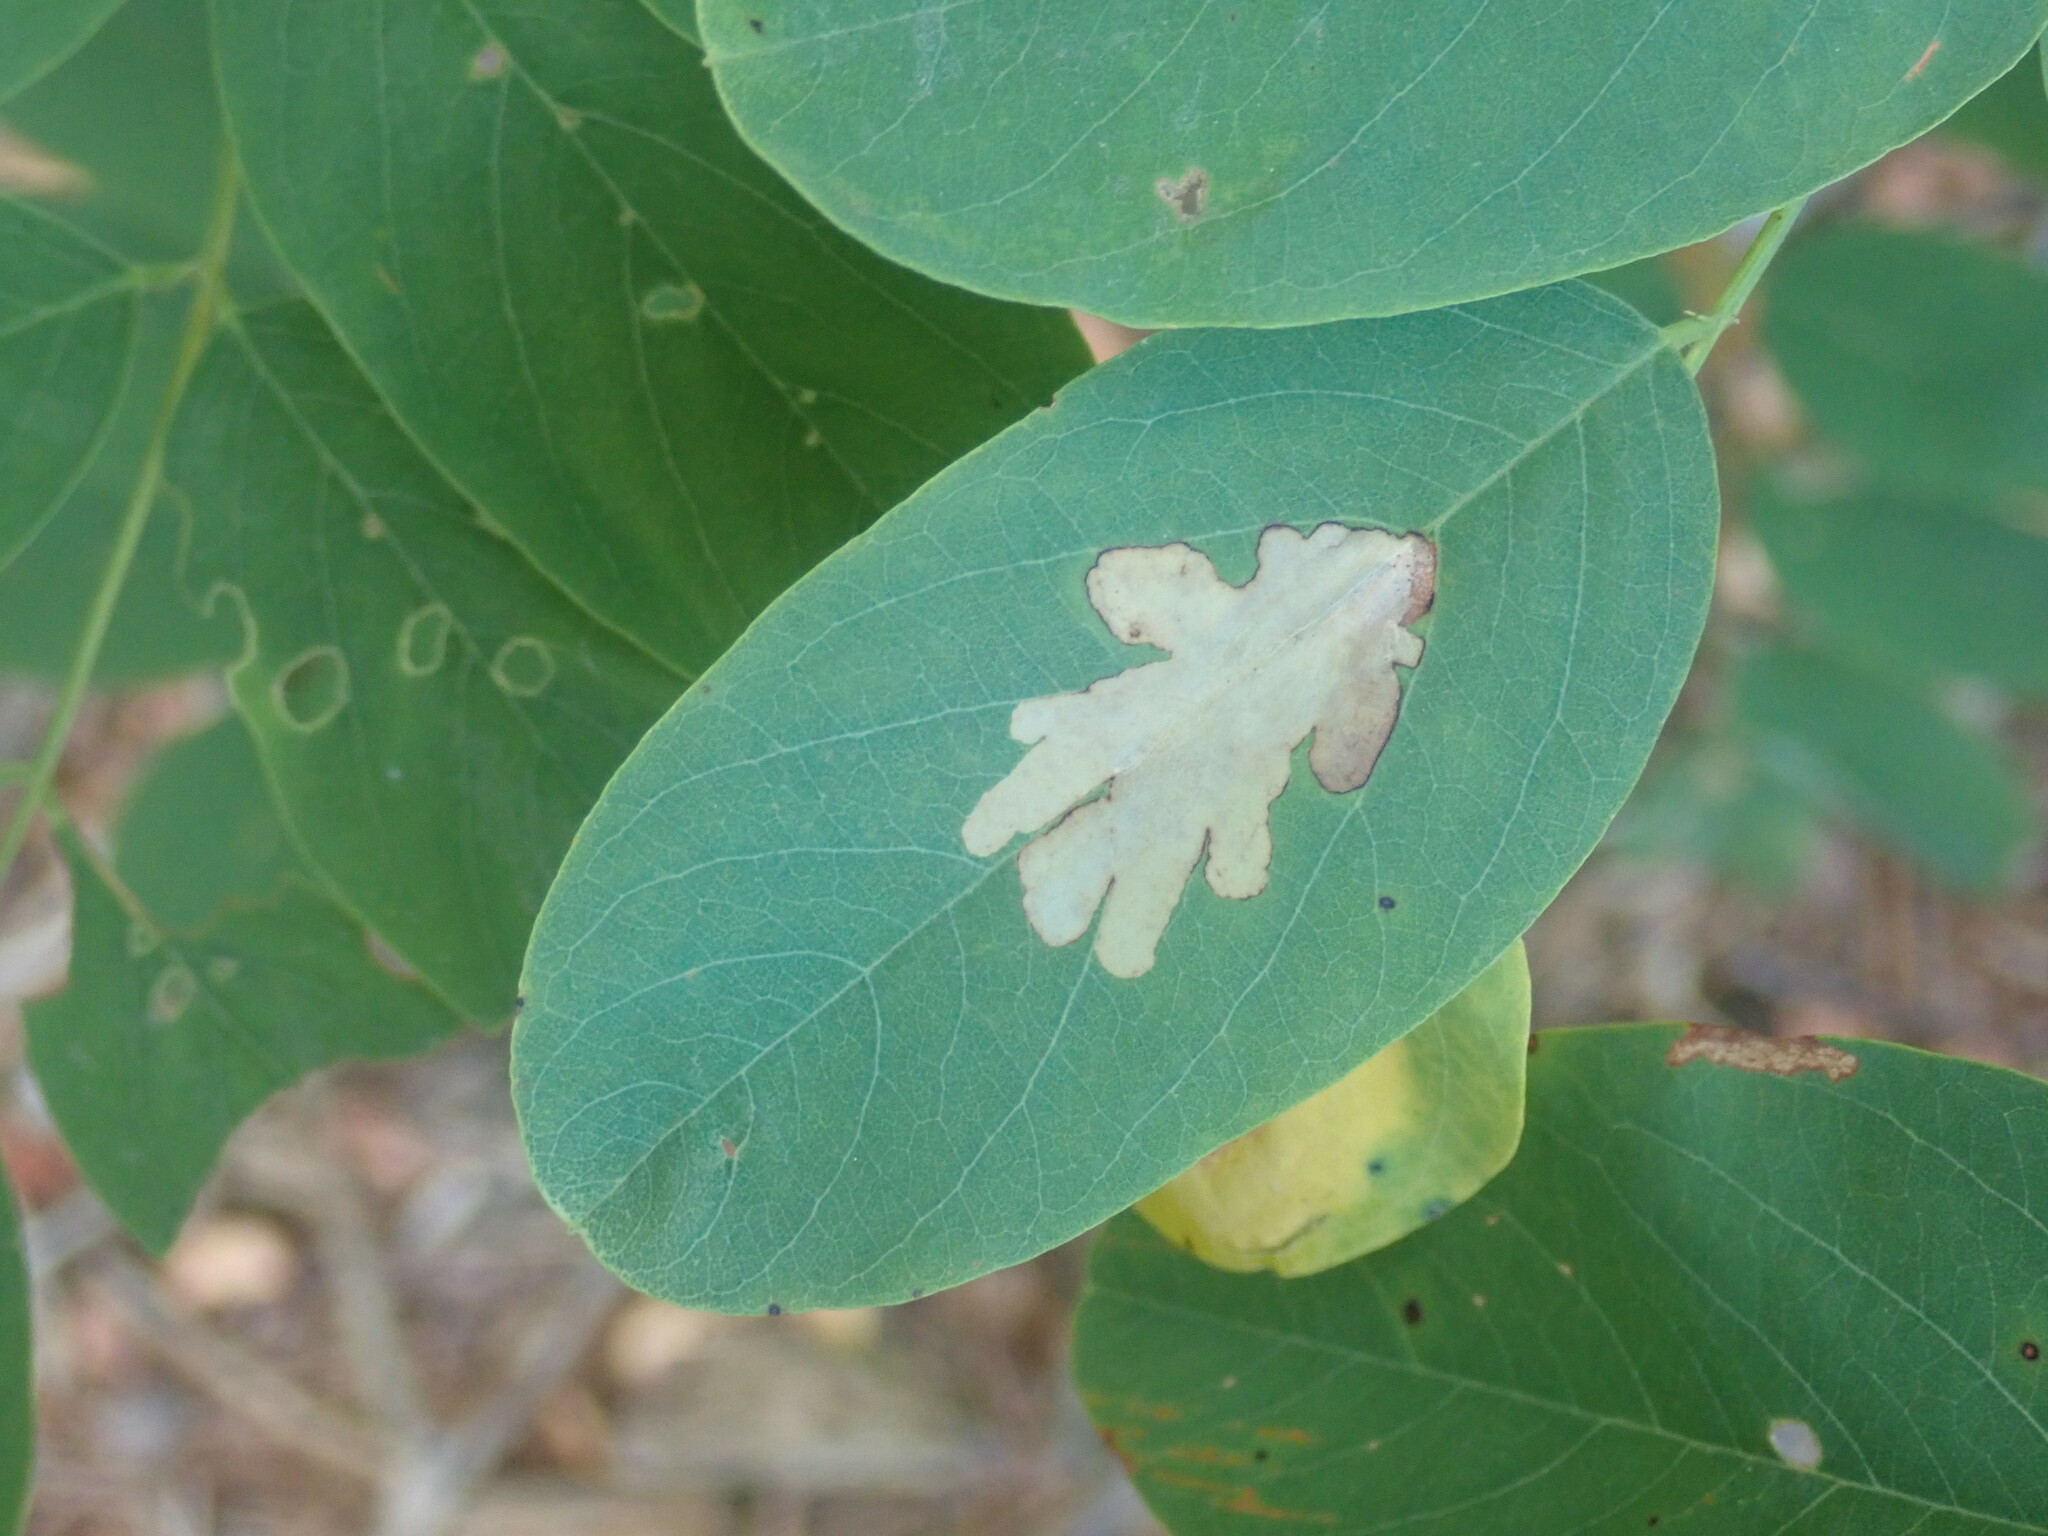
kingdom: Animalia
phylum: Arthropoda
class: Insecta
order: Lepidoptera
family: Gracillariidae
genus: Parectopa
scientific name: Parectopa robiniella
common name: Locust digitate leafminer
